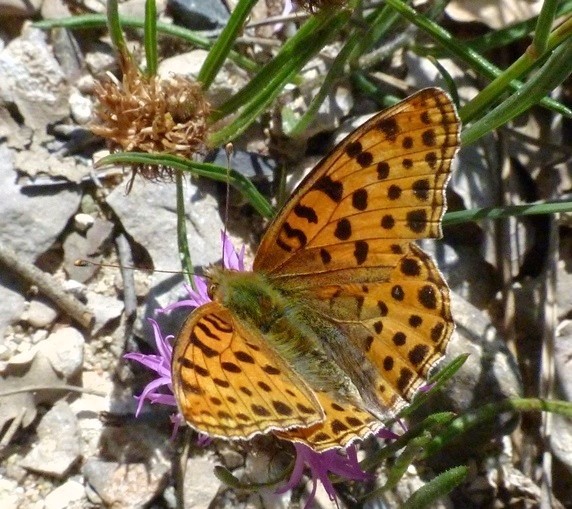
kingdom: Animalia
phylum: Arthropoda
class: Insecta
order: Lepidoptera
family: Nymphalidae
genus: Issoria
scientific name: Issoria lathonia
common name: Queen of spain fritillary
